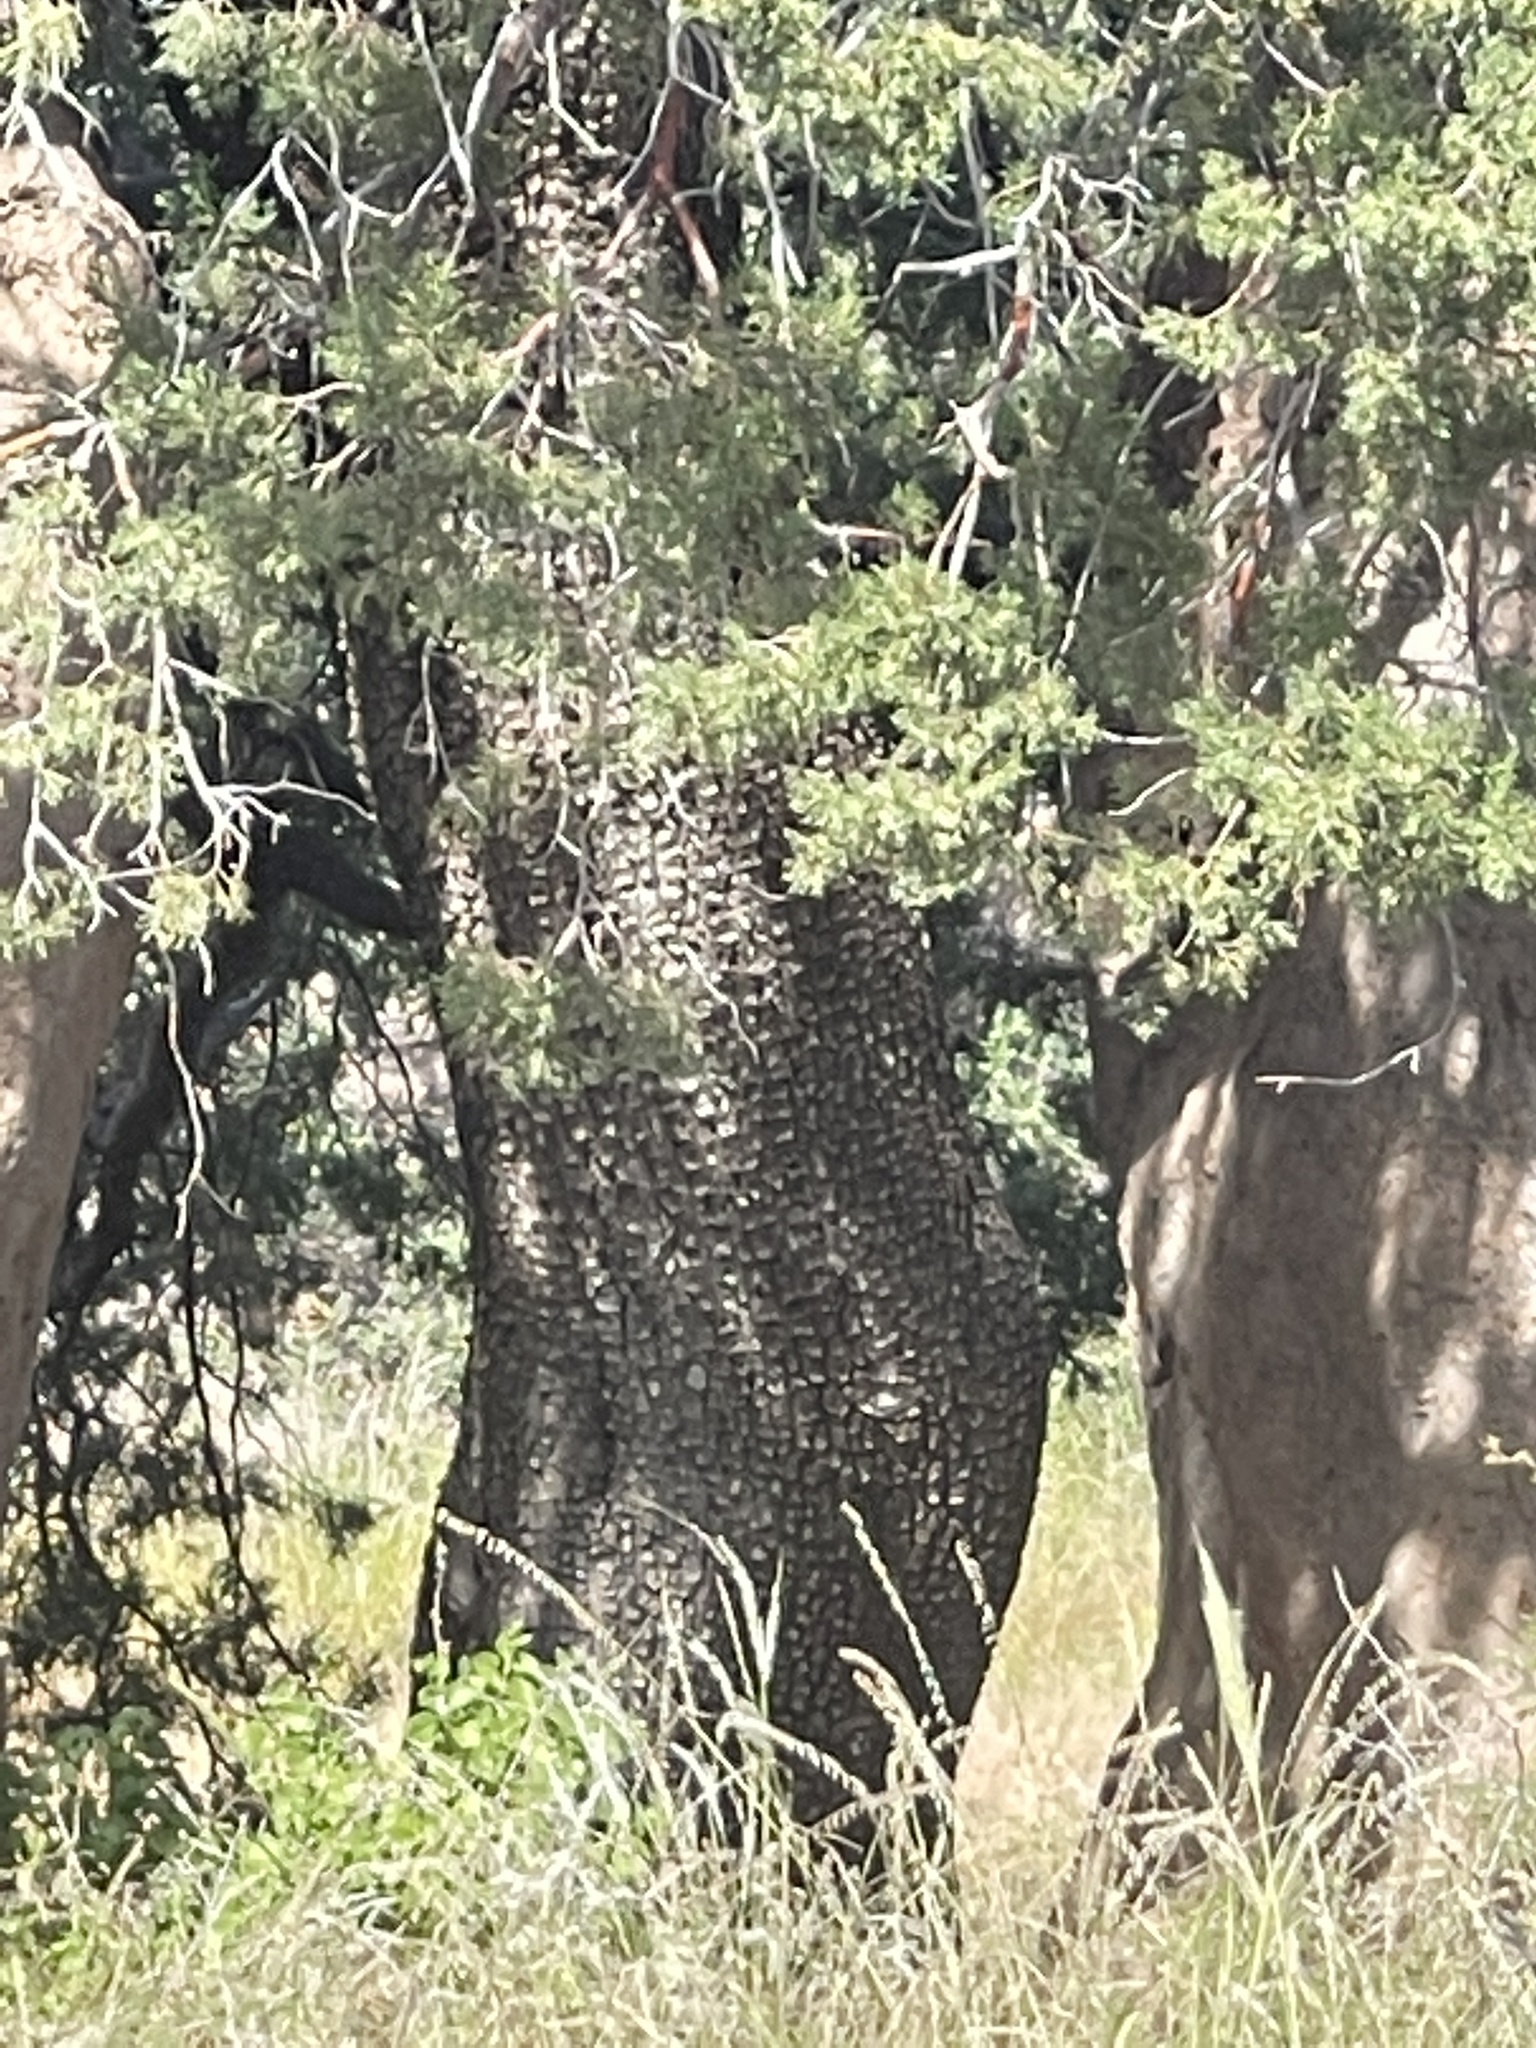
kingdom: Plantae
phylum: Tracheophyta
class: Pinopsida
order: Pinales
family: Cupressaceae
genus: Juniperus
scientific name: Juniperus deppeana
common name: Alligator juniper
